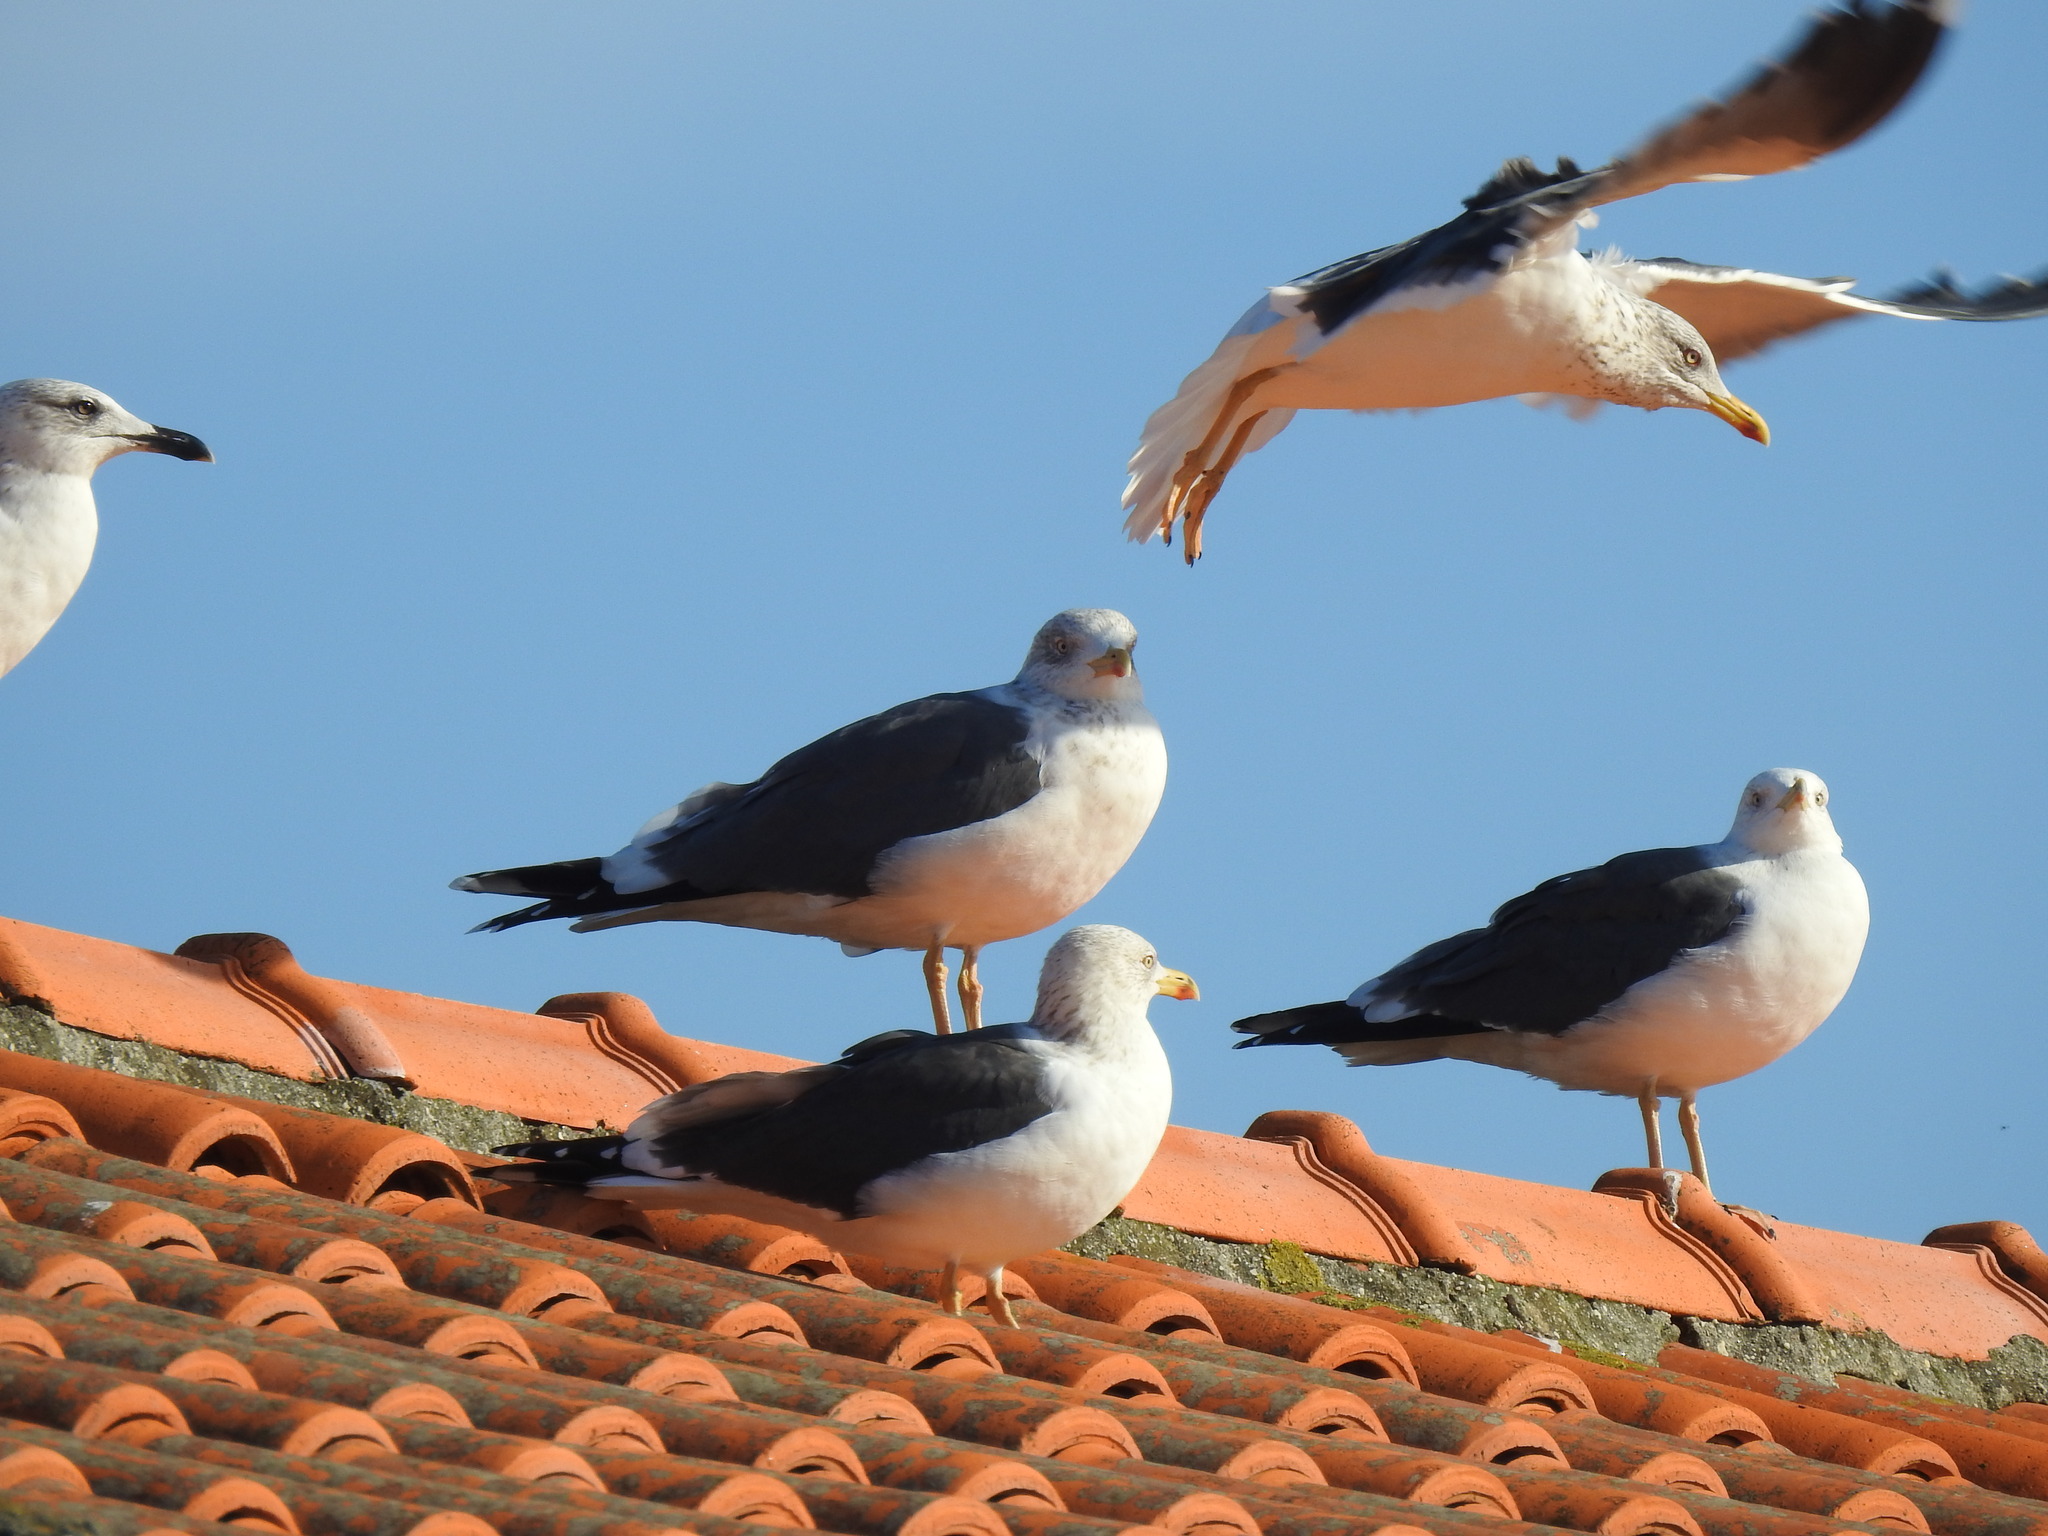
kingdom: Animalia
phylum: Chordata
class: Aves
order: Charadriiformes
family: Laridae
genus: Larus
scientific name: Larus fuscus
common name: Lesser black-backed gull
